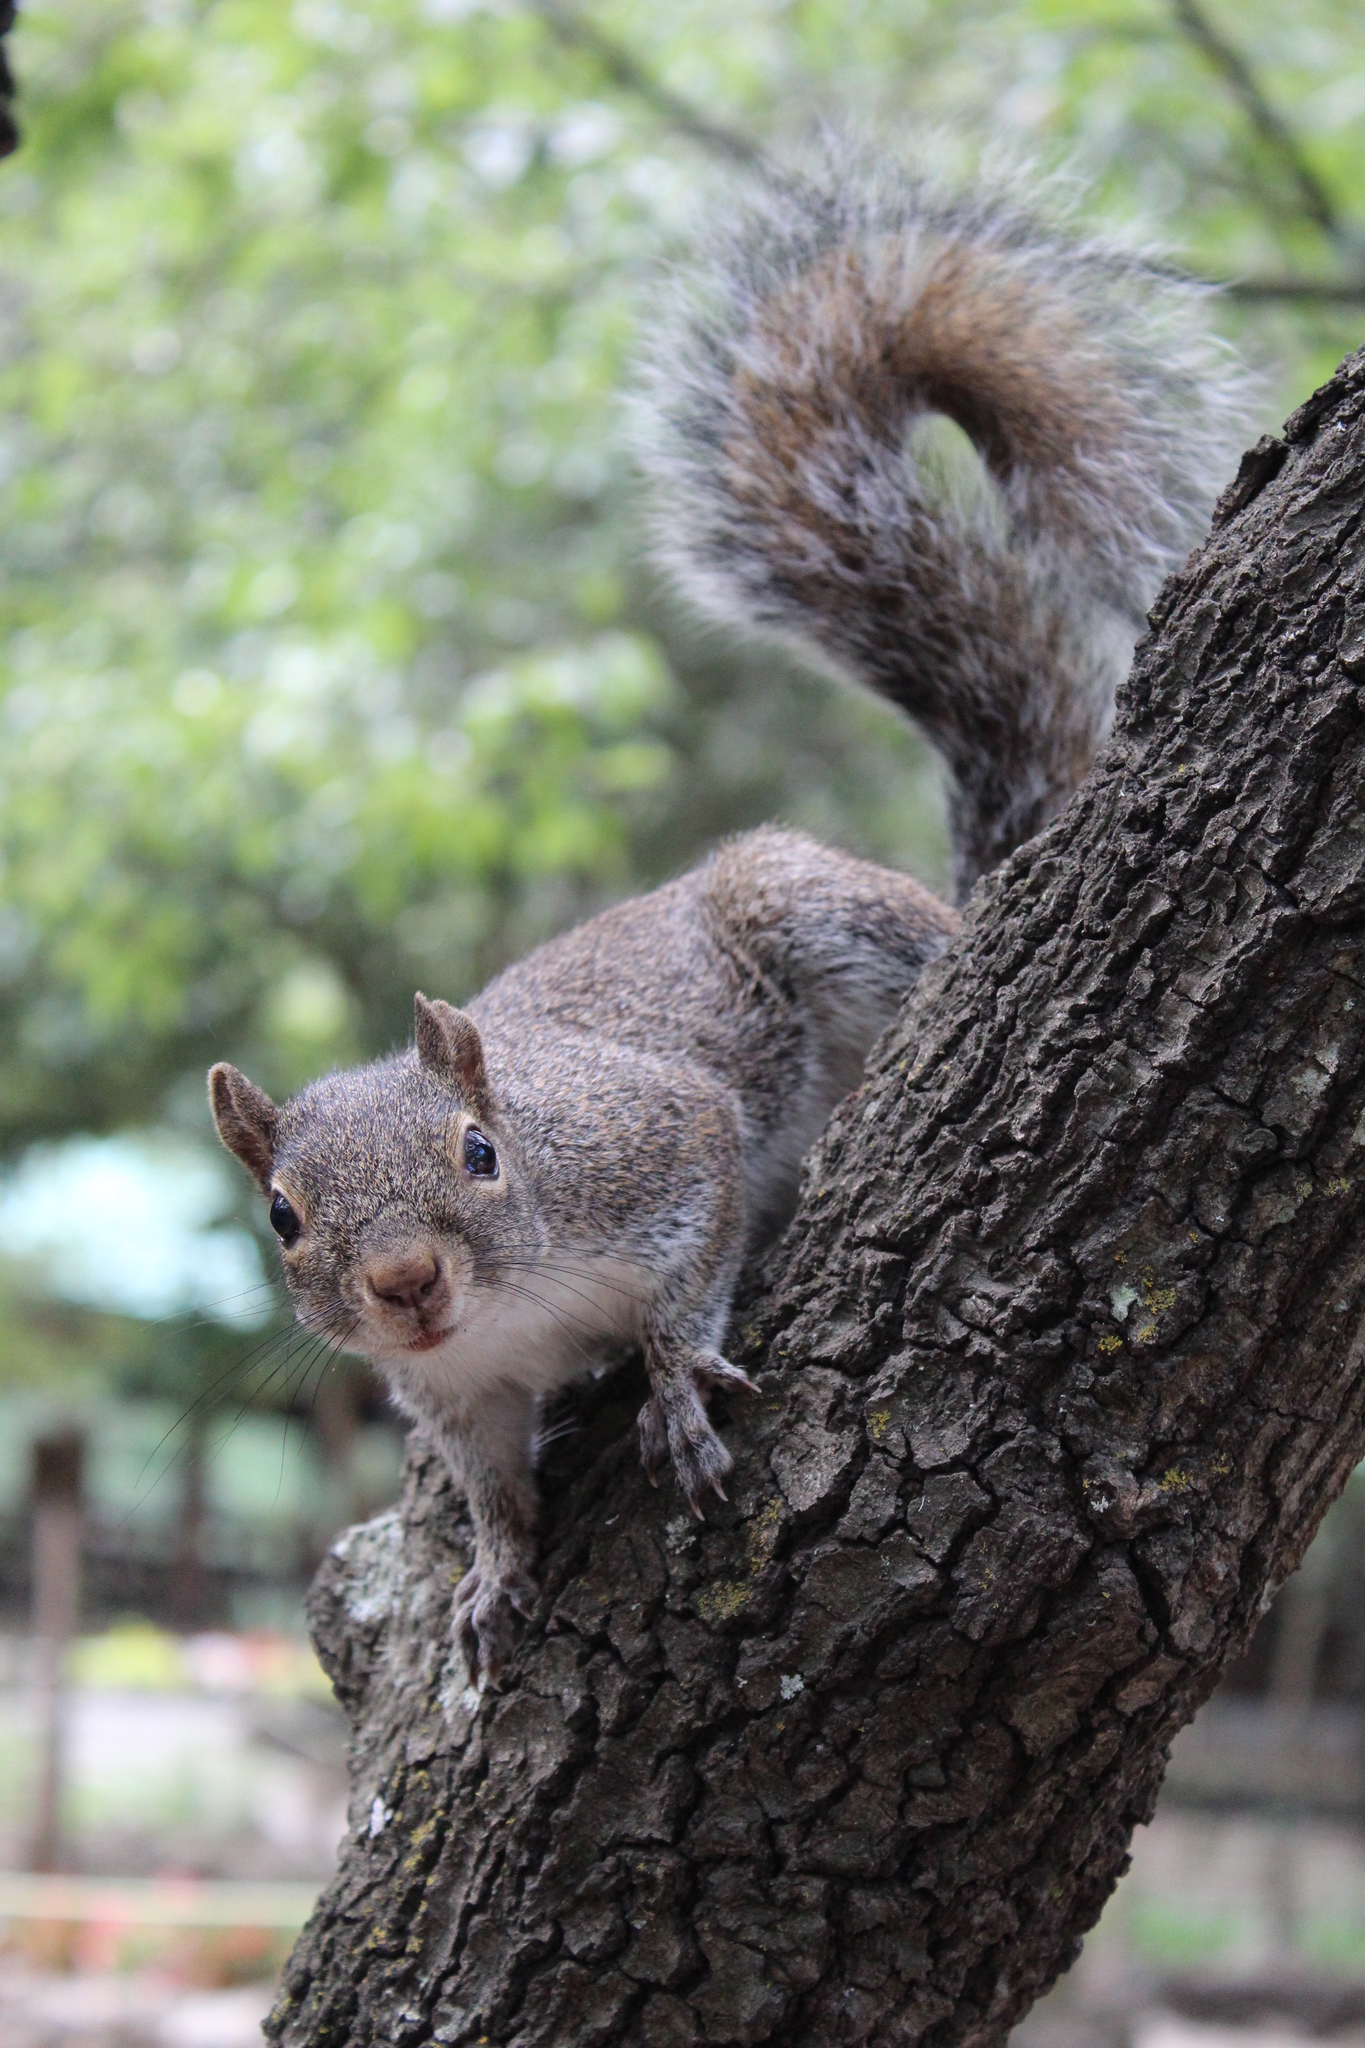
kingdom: Animalia
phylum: Chordata
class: Mammalia
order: Rodentia
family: Sciuridae
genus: Sciurus
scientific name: Sciurus alleni
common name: Allen's squirrel
